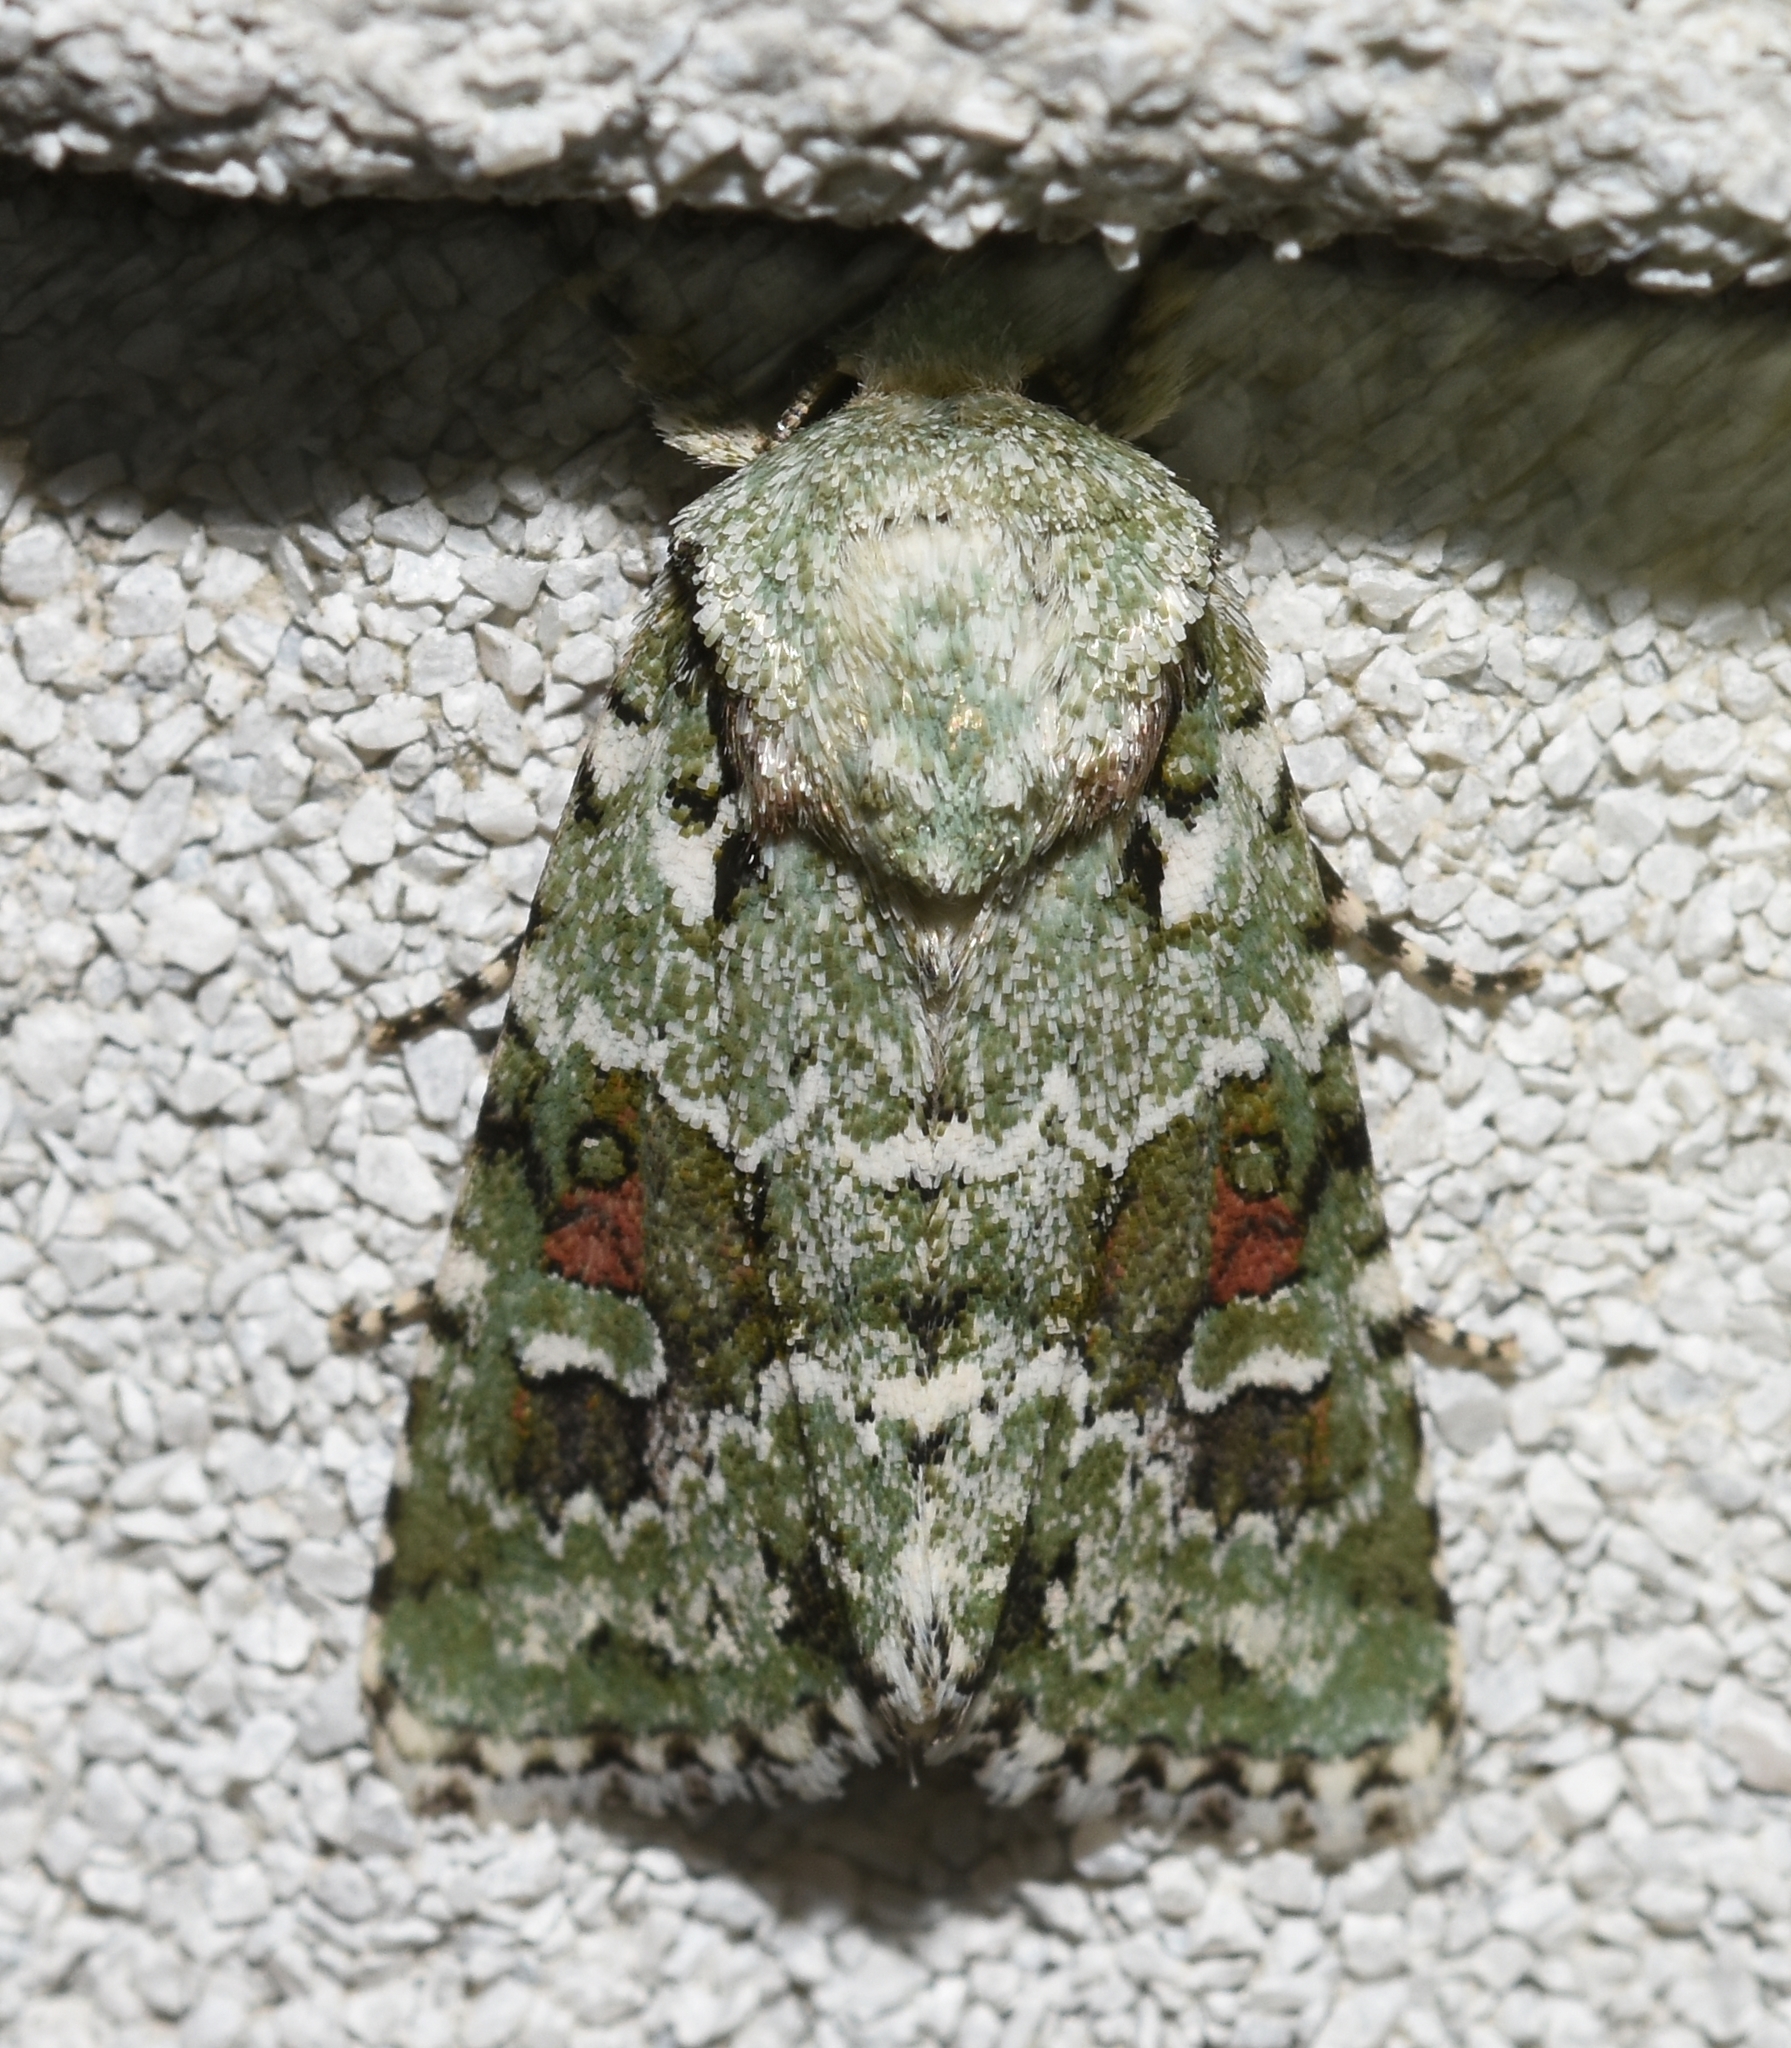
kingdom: Animalia
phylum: Arthropoda
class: Insecta
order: Lepidoptera
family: Noctuidae
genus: Lacinipolia
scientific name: Lacinipolia laudabilis
